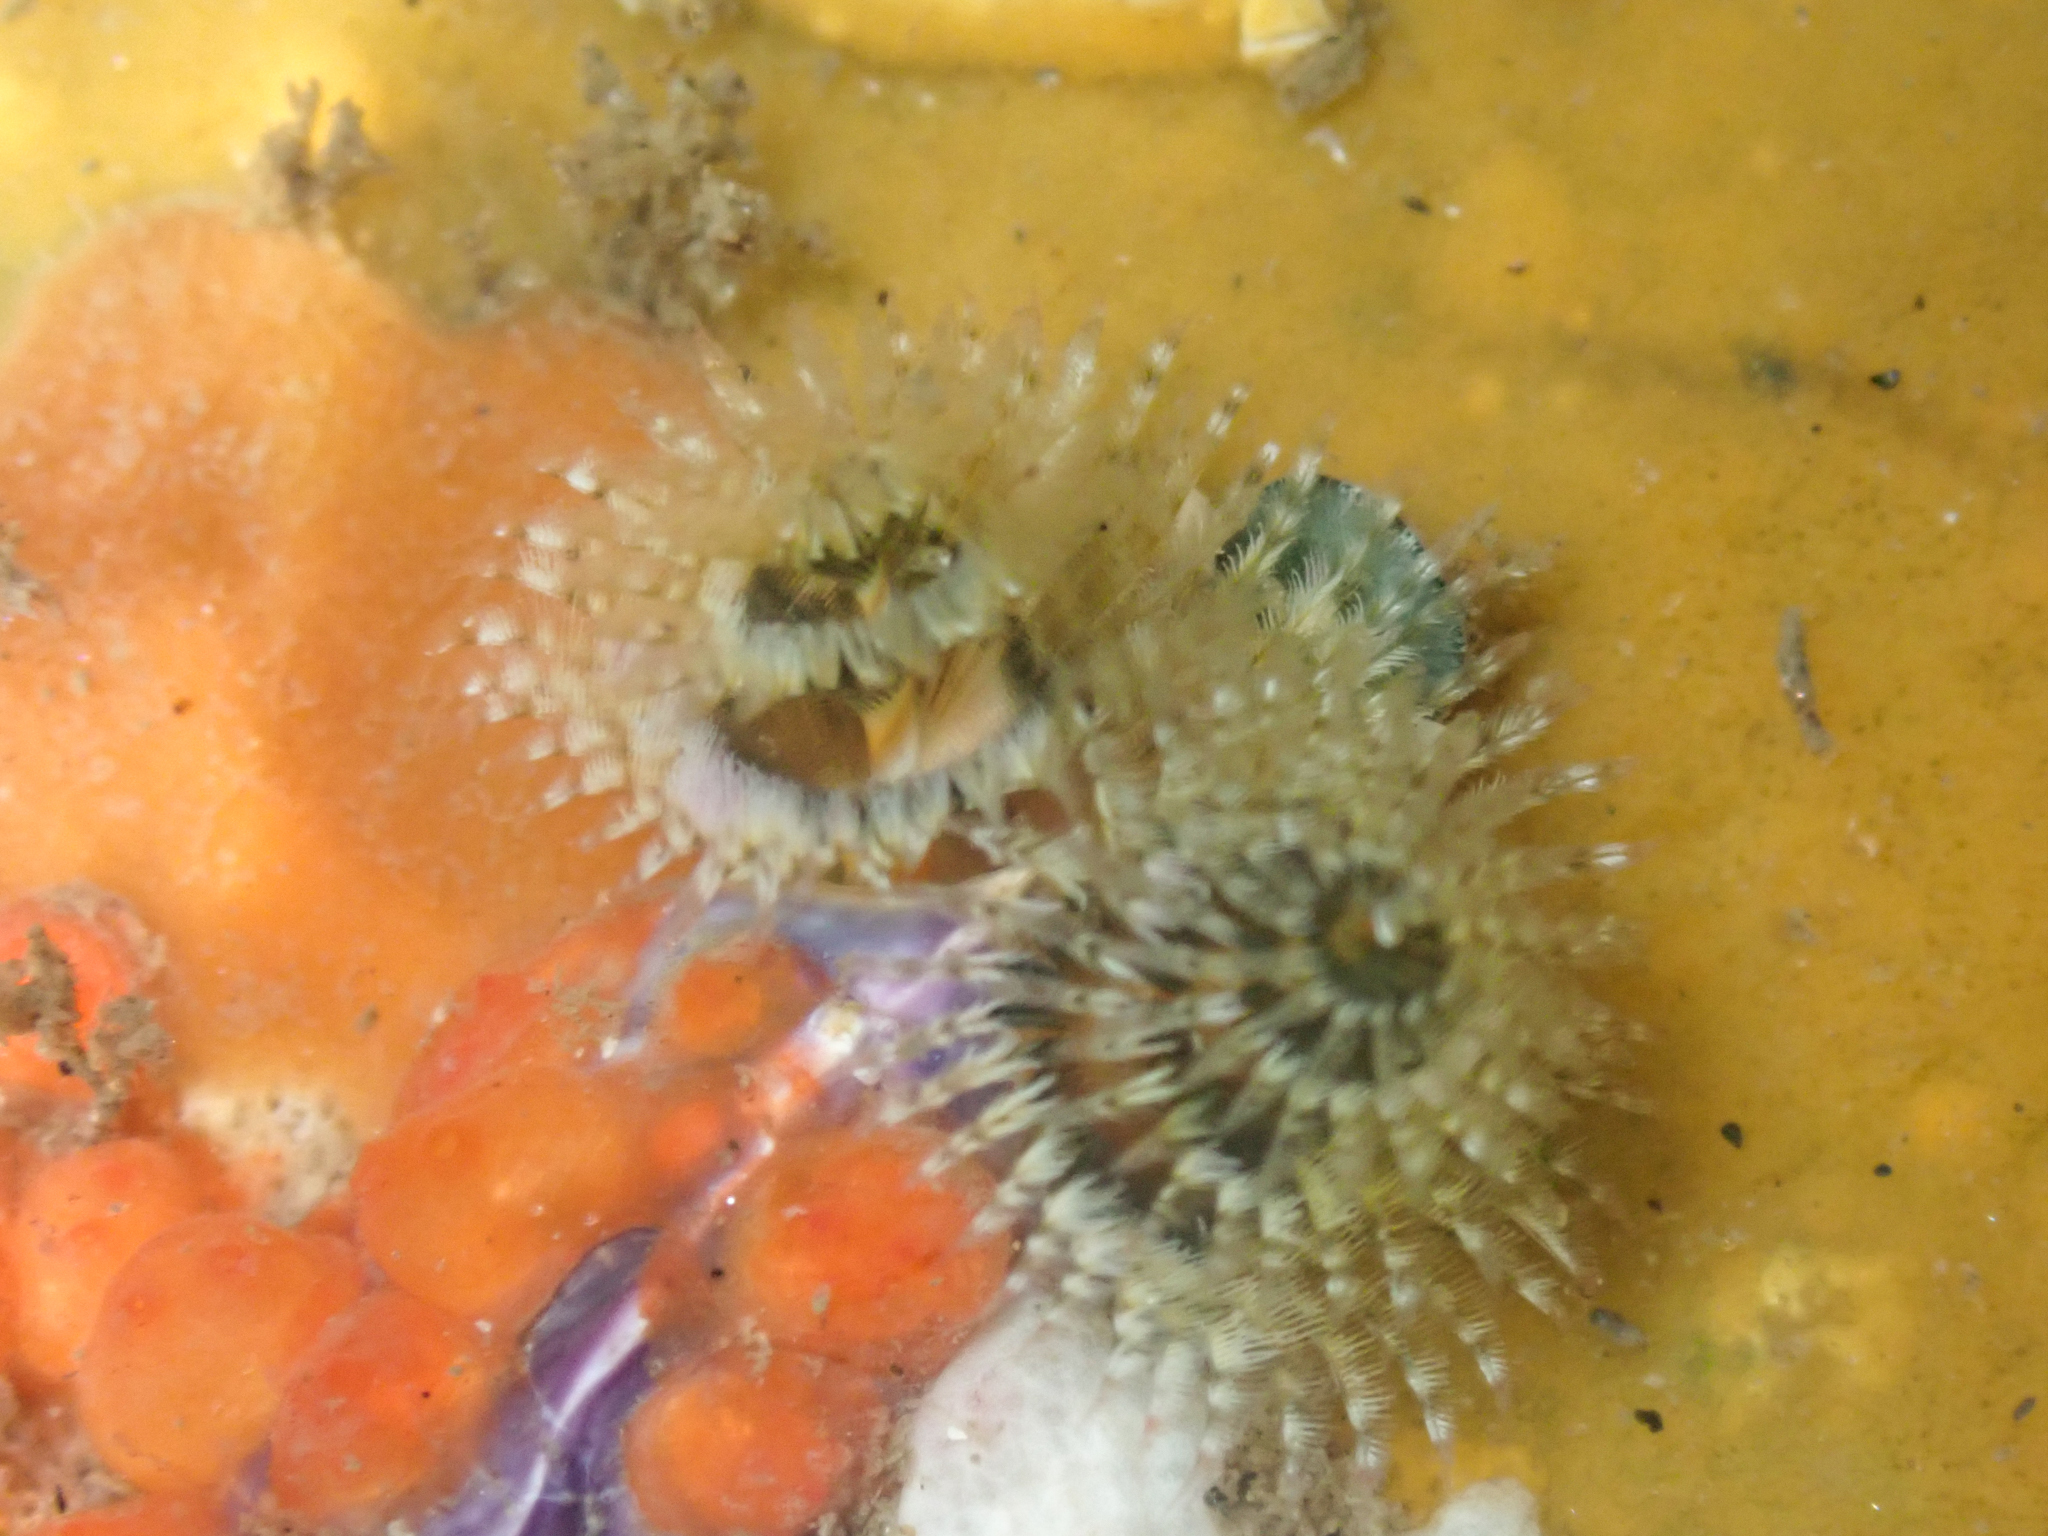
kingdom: Animalia
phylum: Annelida
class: Polychaeta
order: Sabellida
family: Serpulidae
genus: Spirobranchus
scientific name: Spirobranchus spinosus
